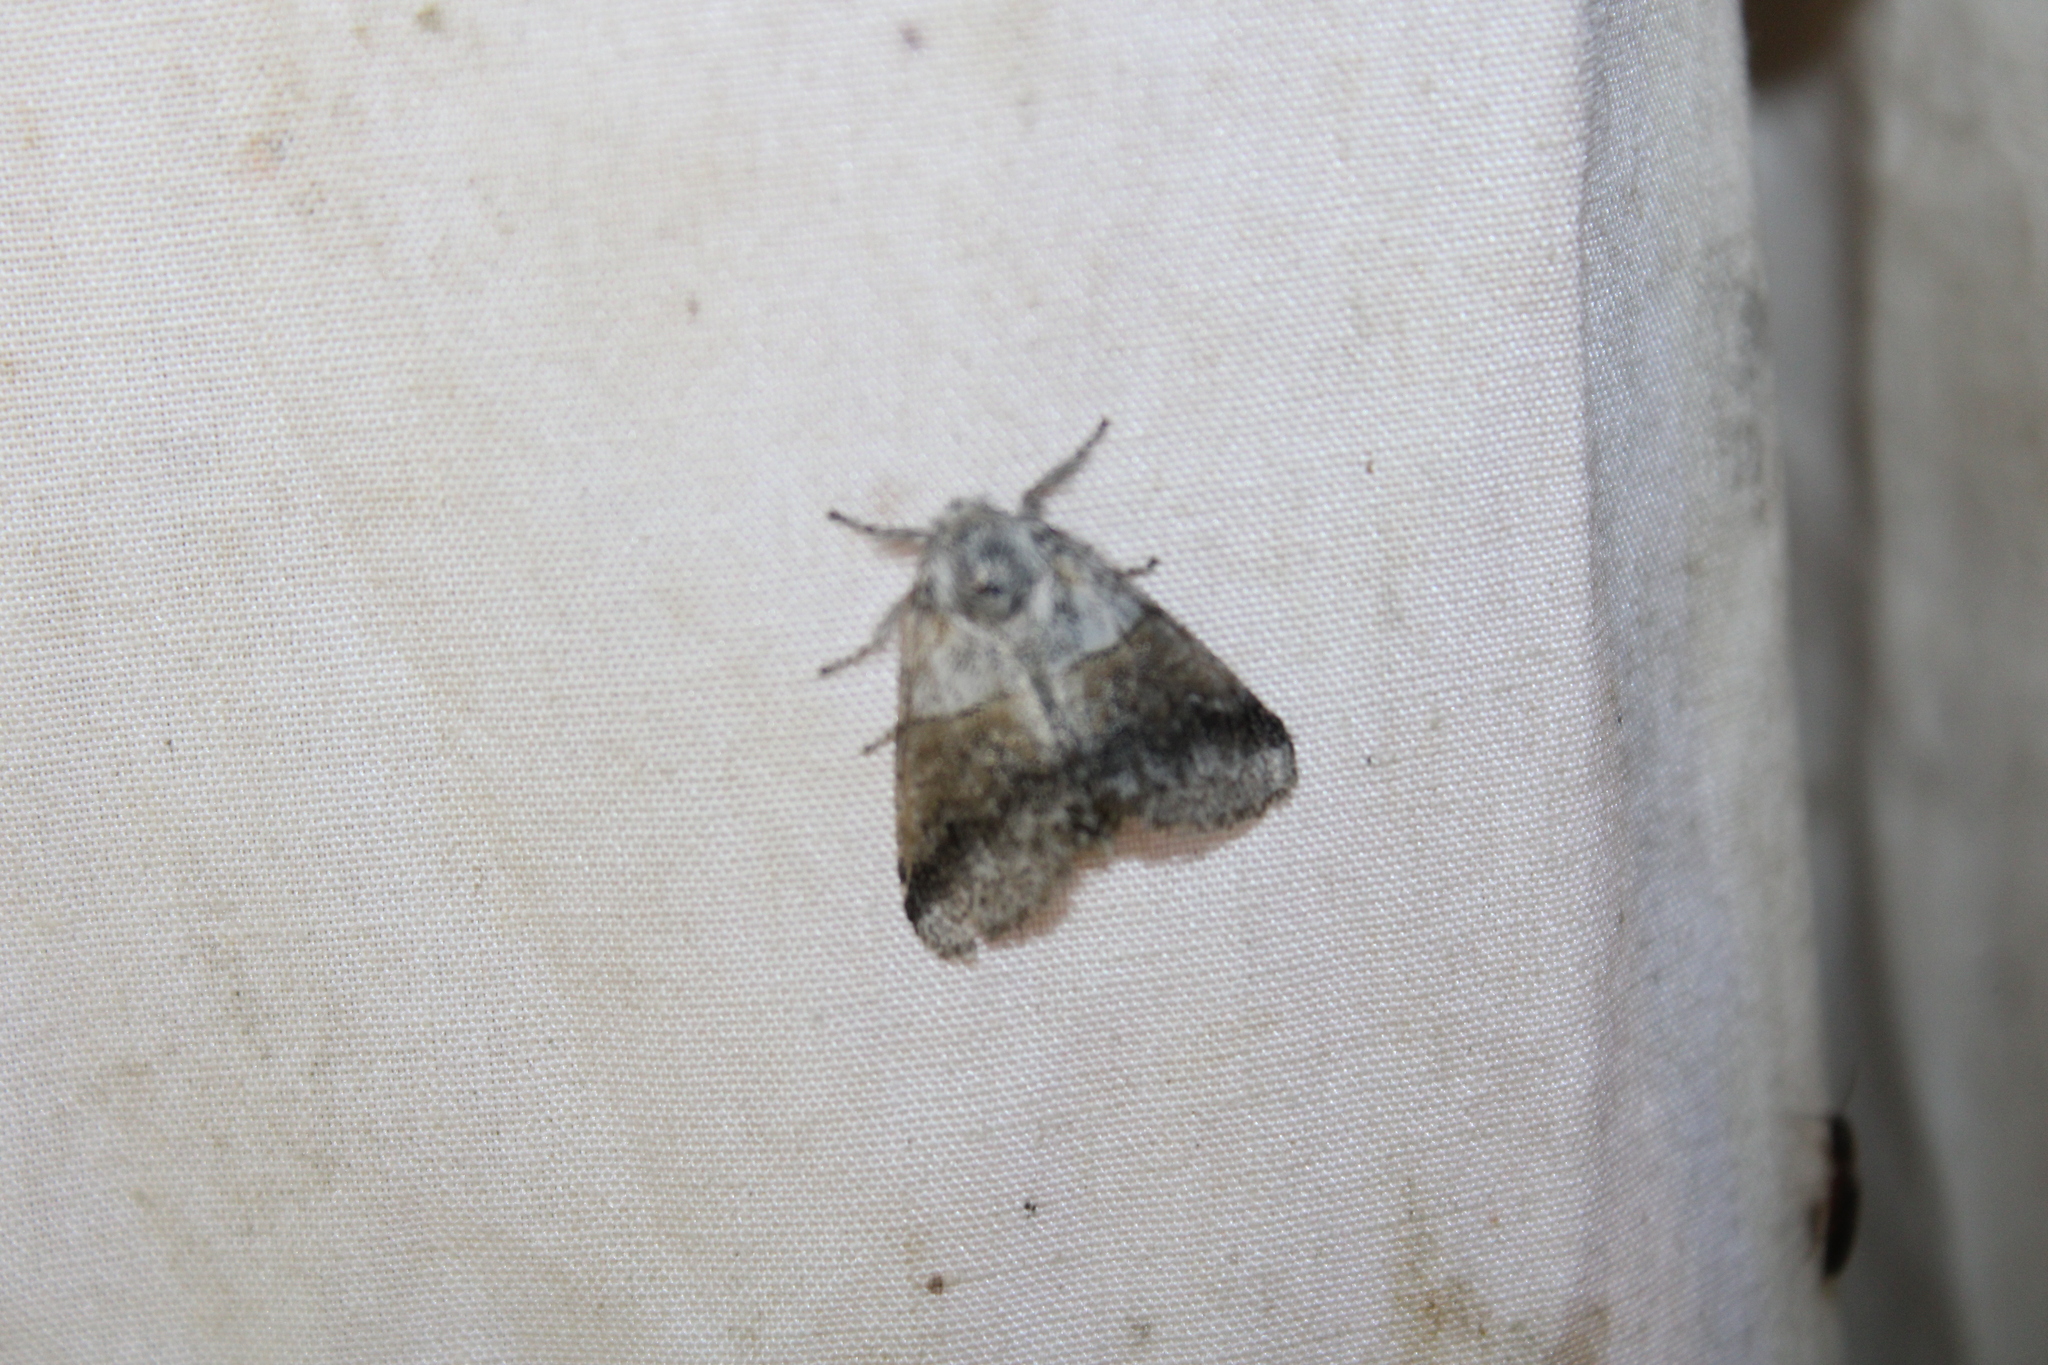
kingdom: Animalia
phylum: Arthropoda
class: Insecta
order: Lepidoptera
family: Notodontidae
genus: Gluphisia
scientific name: Gluphisia septentrionis
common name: Common gluphisia
